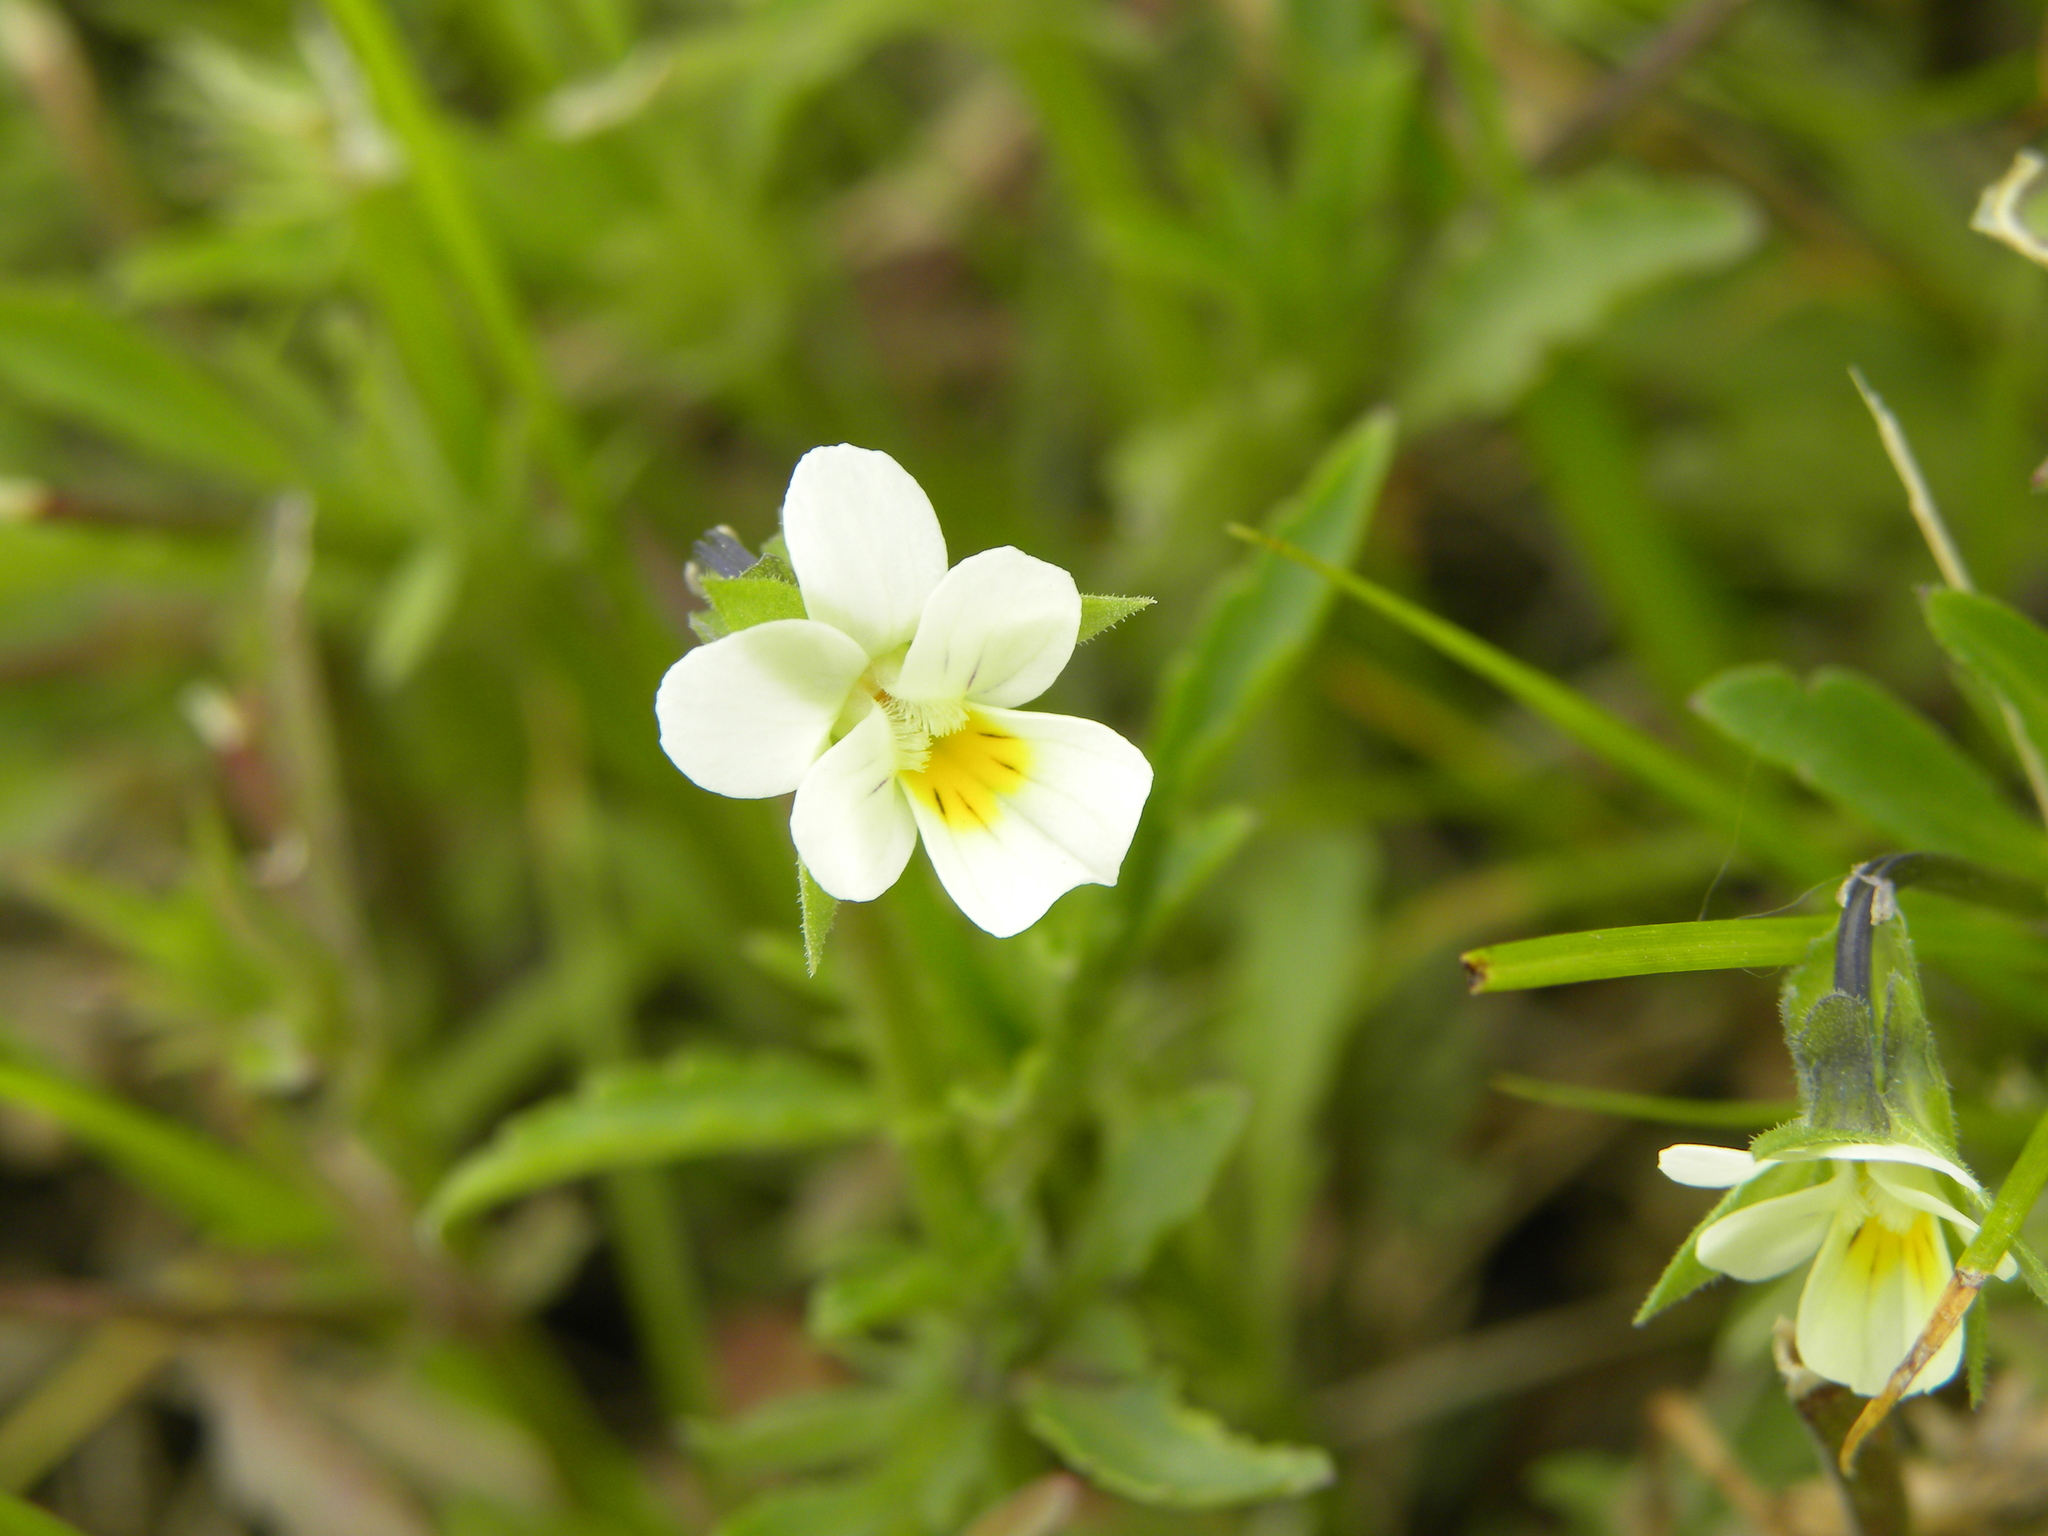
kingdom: Plantae
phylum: Tracheophyta
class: Magnoliopsida
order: Malpighiales
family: Violaceae
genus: Viola
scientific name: Viola arvensis
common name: Field pansy
